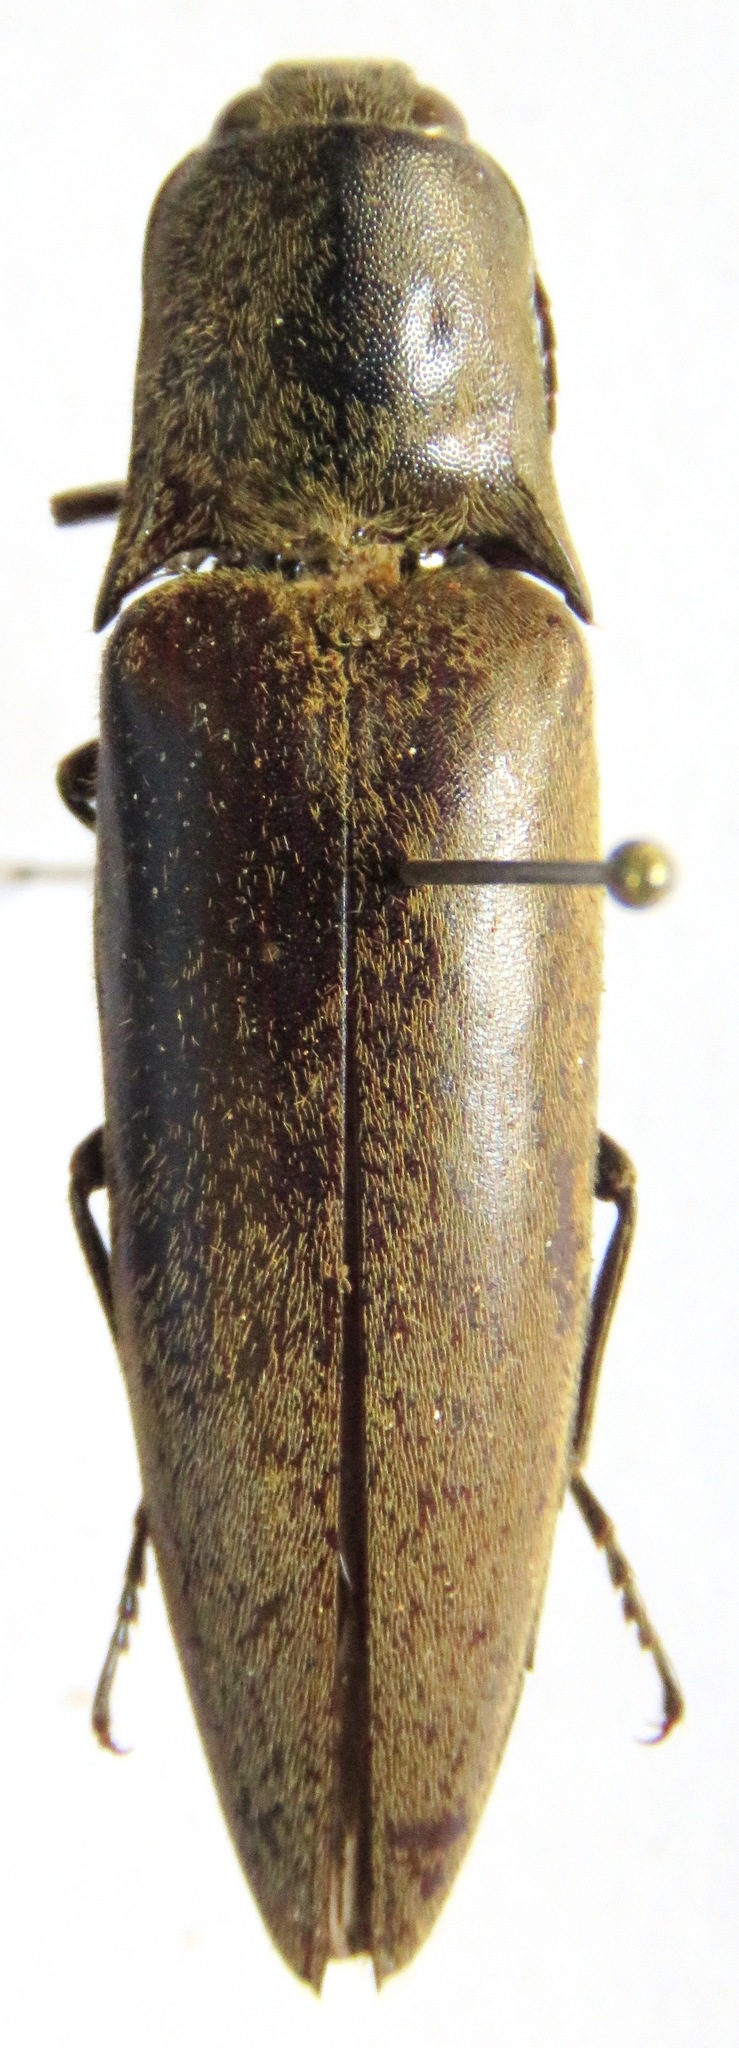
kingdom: Animalia
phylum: Arthropoda
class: Insecta
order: Coleoptera
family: Elateridae
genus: Orthostethus
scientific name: Orthostethus infuscatus
